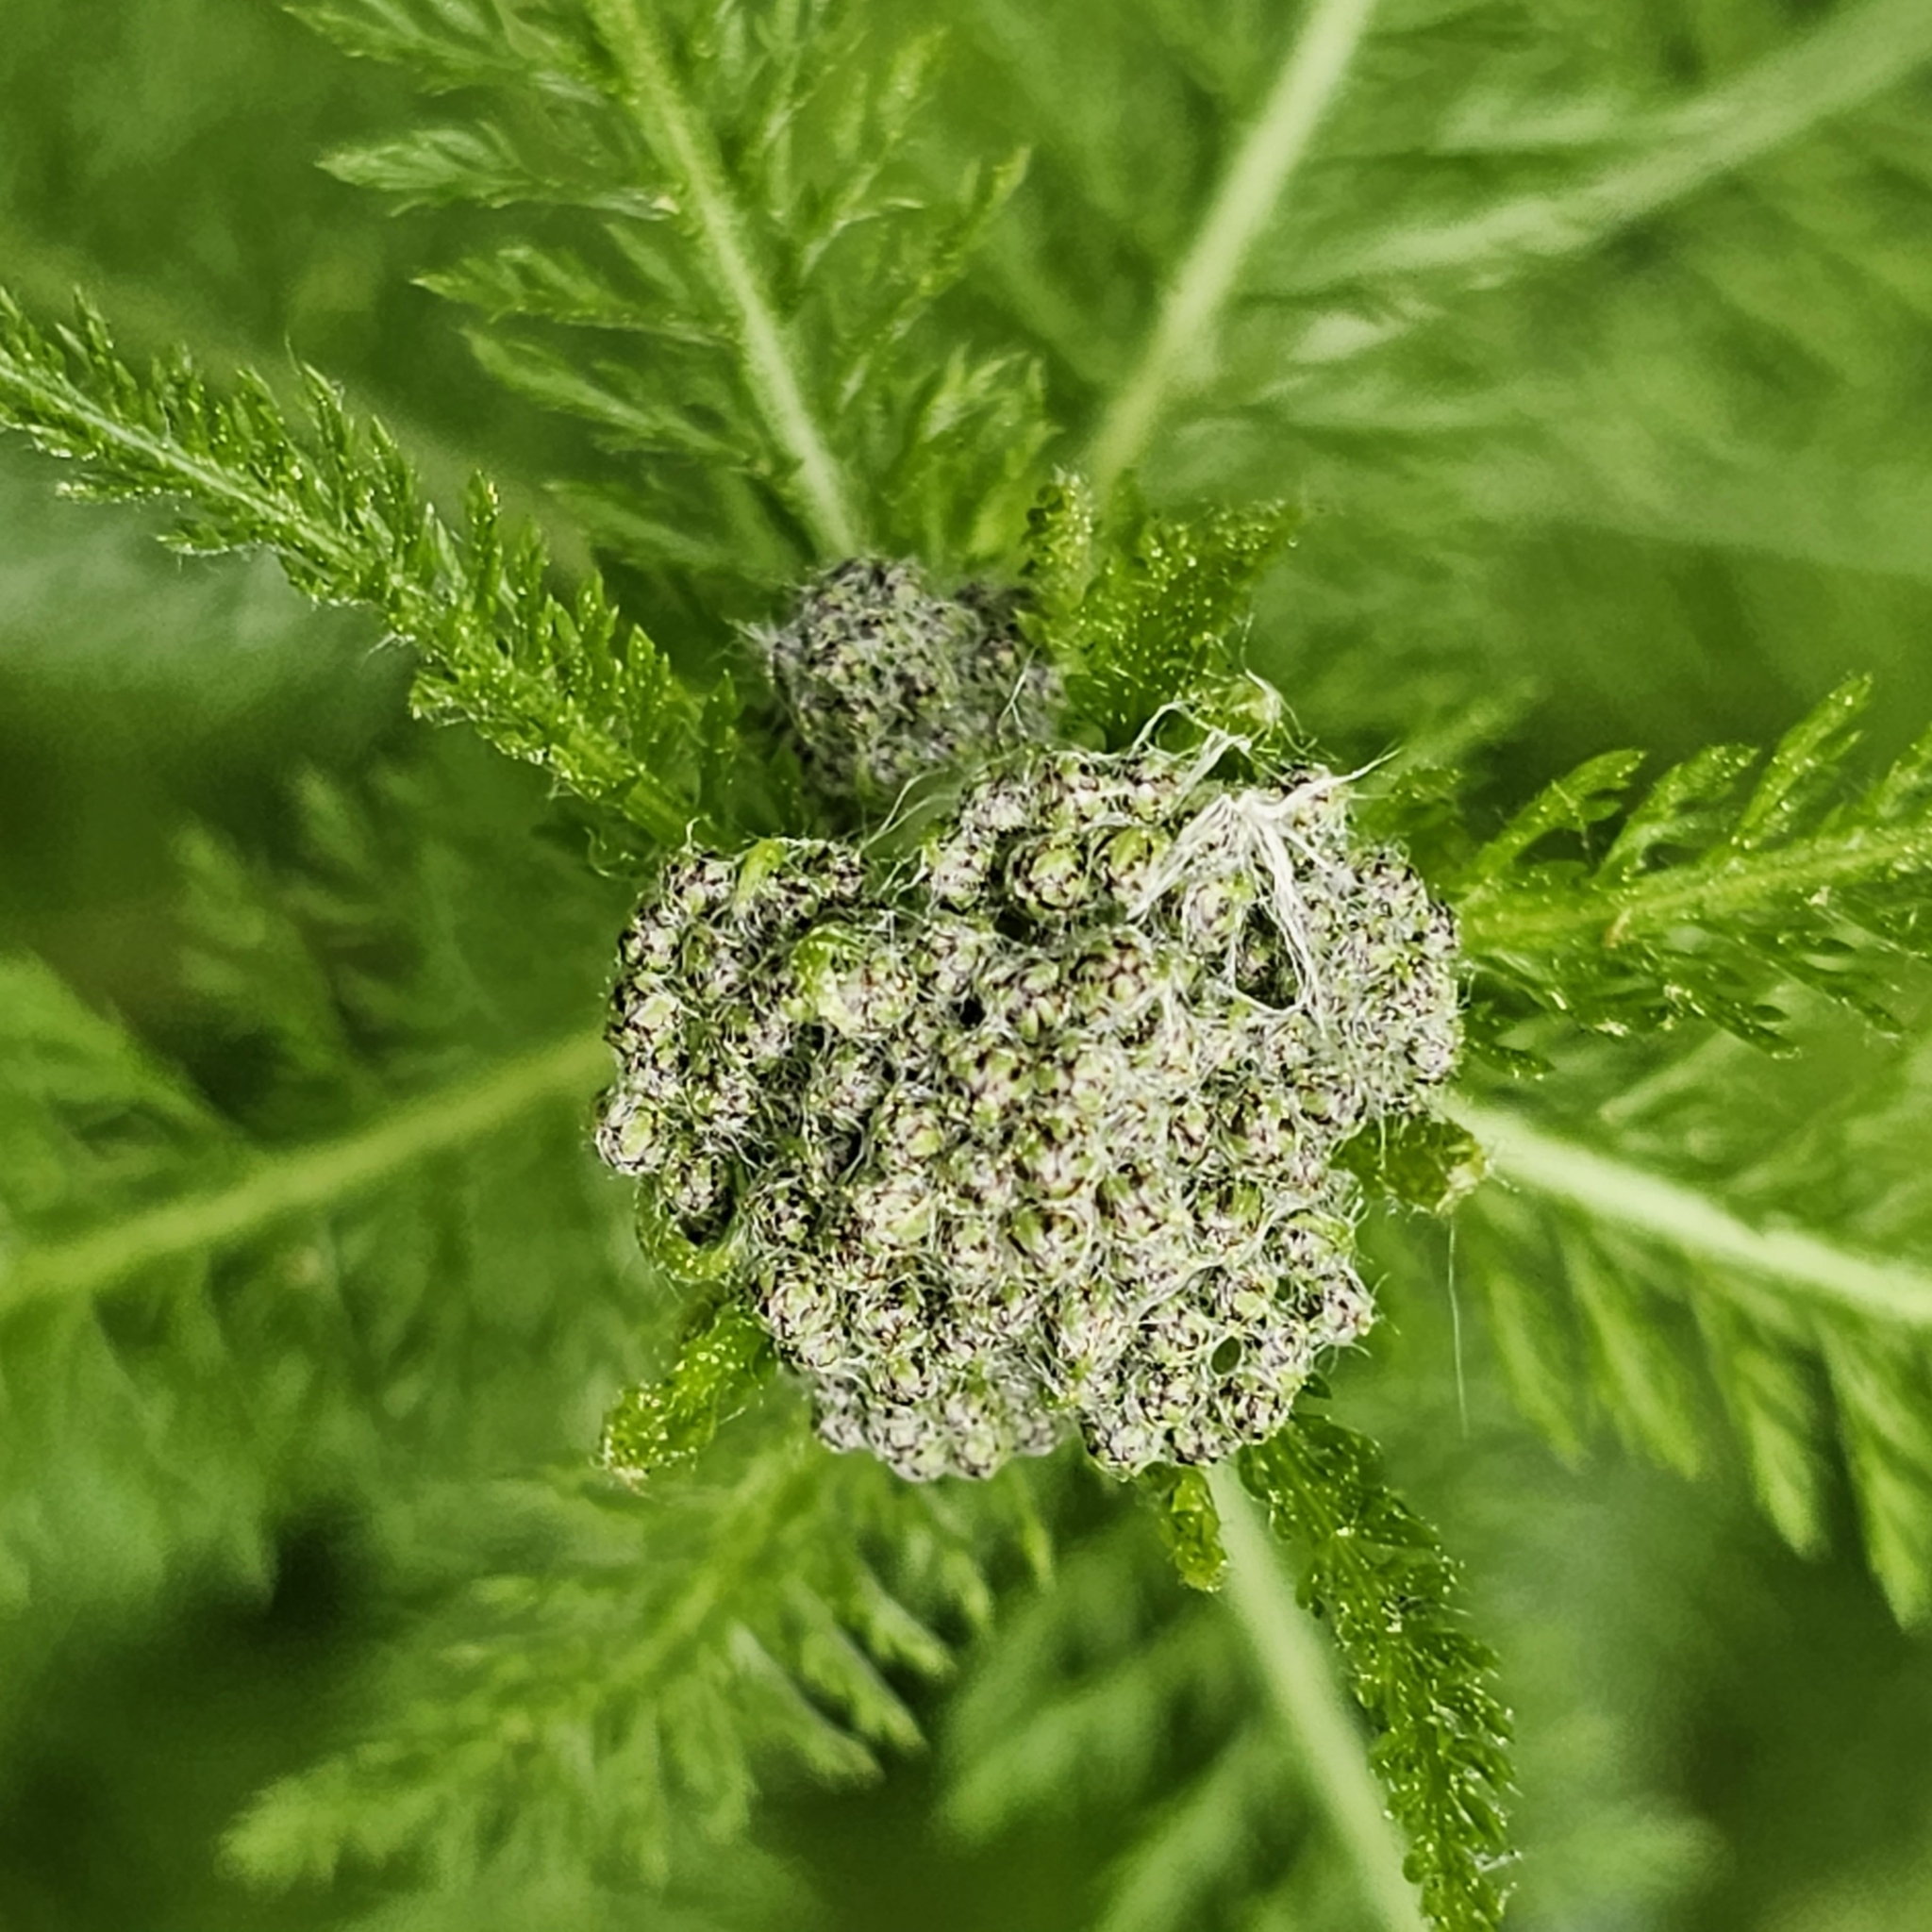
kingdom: Plantae
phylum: Tracheophyta
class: Magnoliopsida
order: Asterales
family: Asteraceae
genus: Achillea
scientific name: Achillea millefolium
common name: Yarrow
